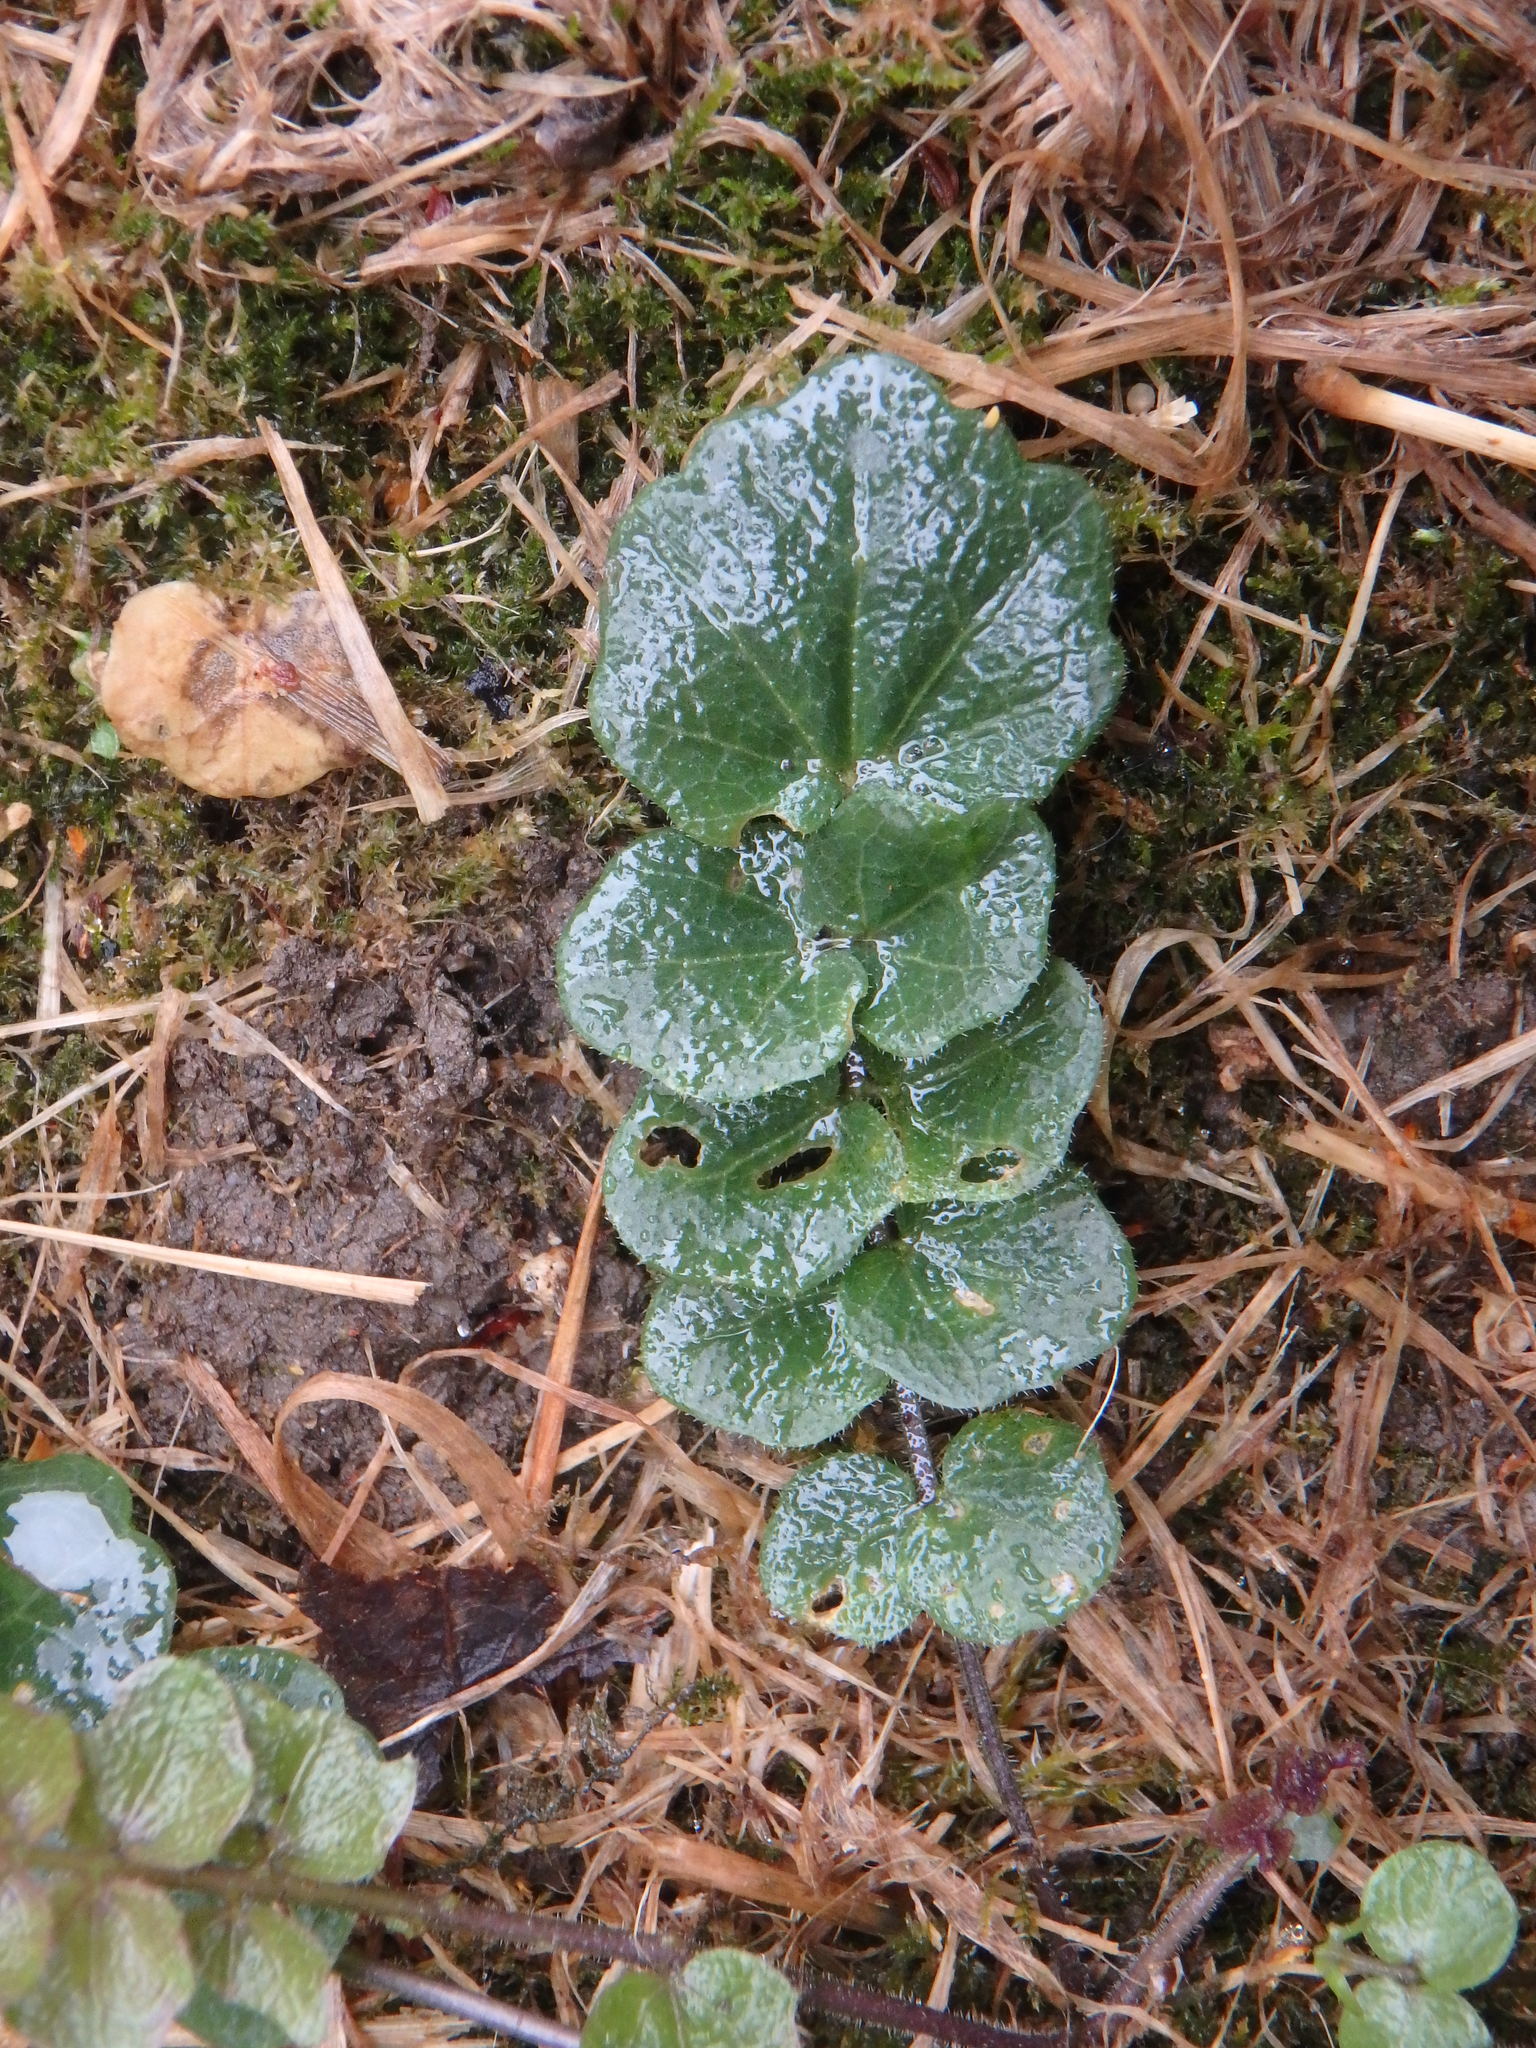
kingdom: Plantae
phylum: Tracheophyta
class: Magnoliopsida
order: Brassicales
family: Brassicaceae
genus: Cardamine
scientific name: Cardamine pratensis
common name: Cuckoo flower
